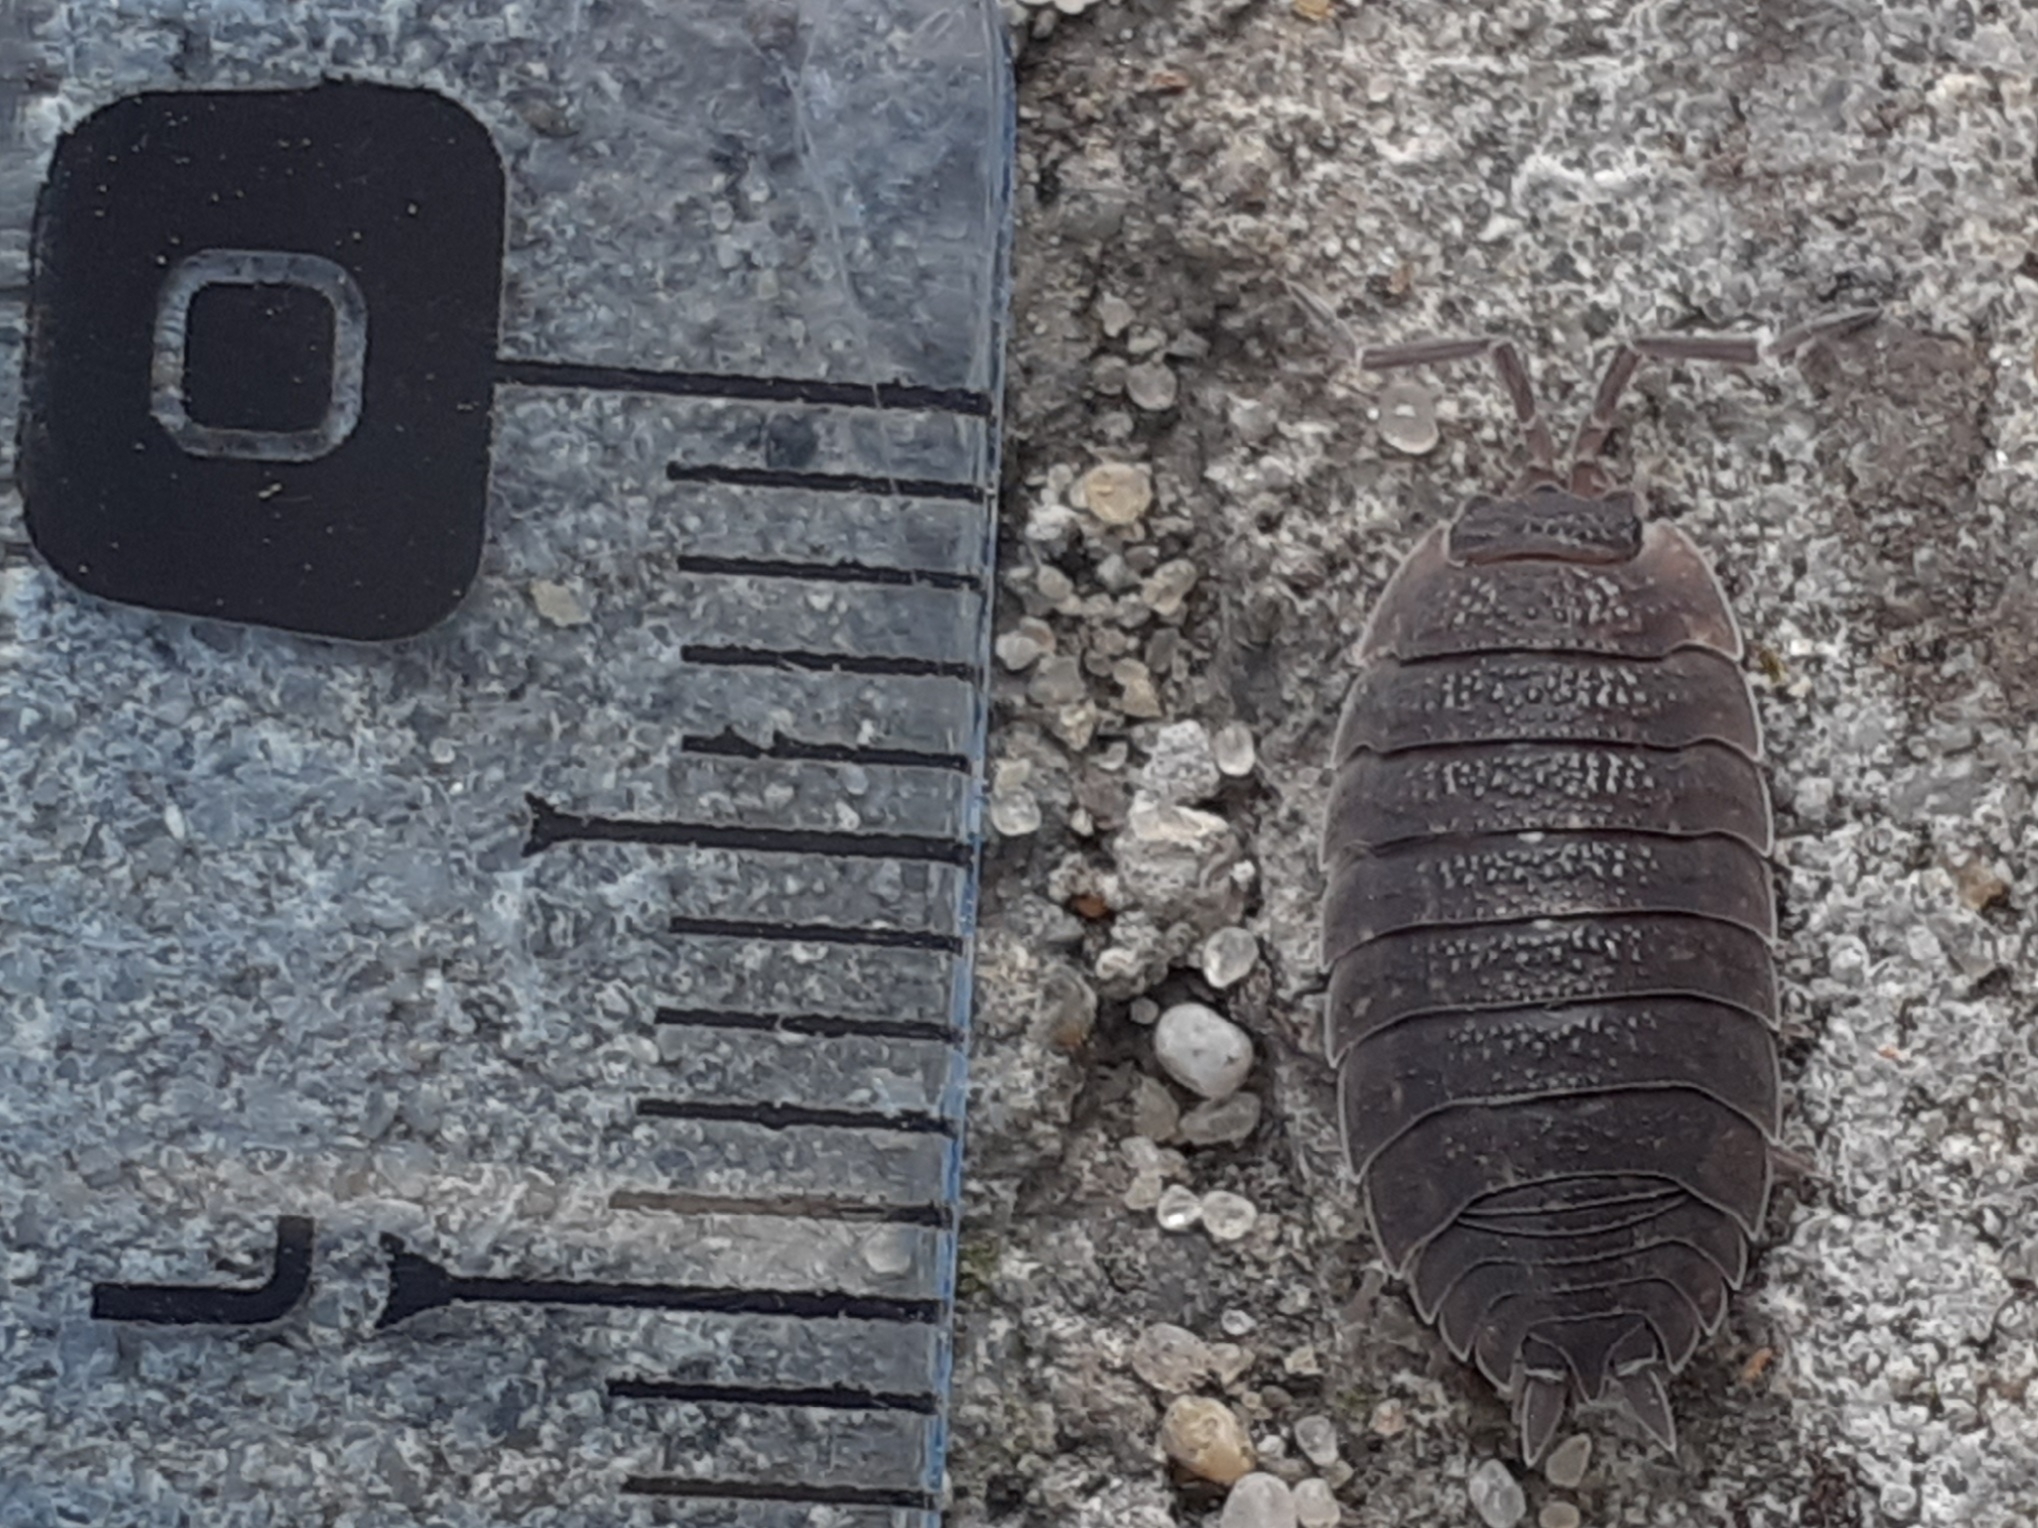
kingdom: Animalia
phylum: Arthropoda
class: Malacostraca
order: Isopoda
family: Porcellionidae
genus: Porcellio
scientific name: Porcellio scaber
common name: Common rough woodlouse
